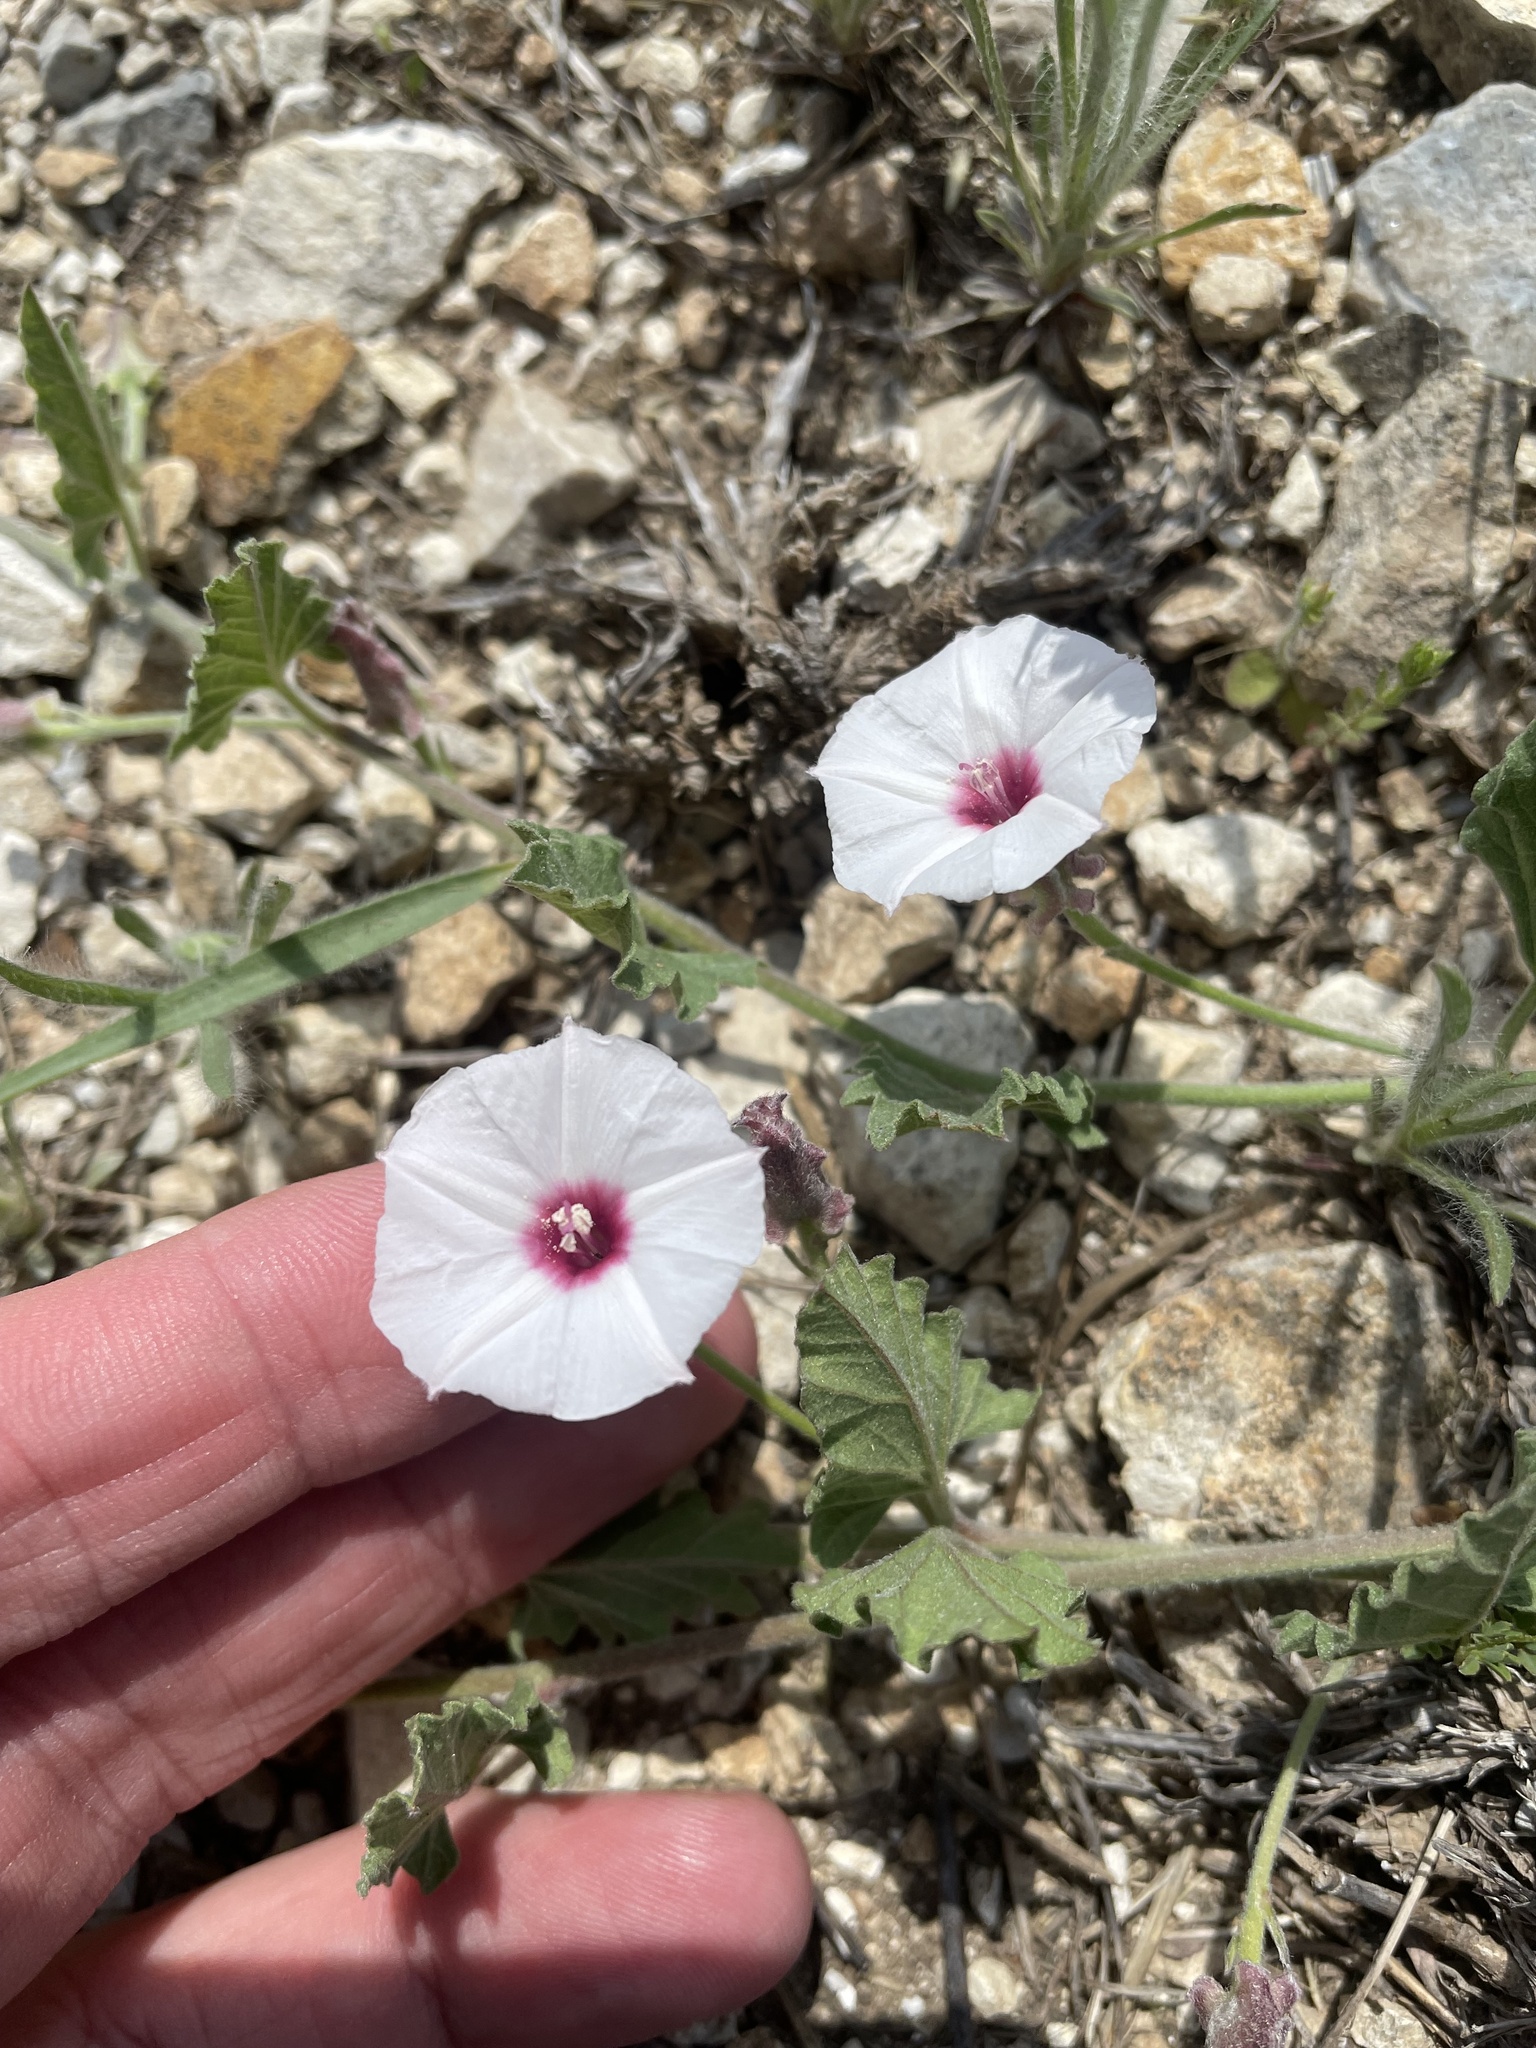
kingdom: Plantae
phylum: Tracheophyta
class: Magnoliopsida
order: Solanales
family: Convolvulaceae
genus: Convolvulus
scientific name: Convolvulus equitans
